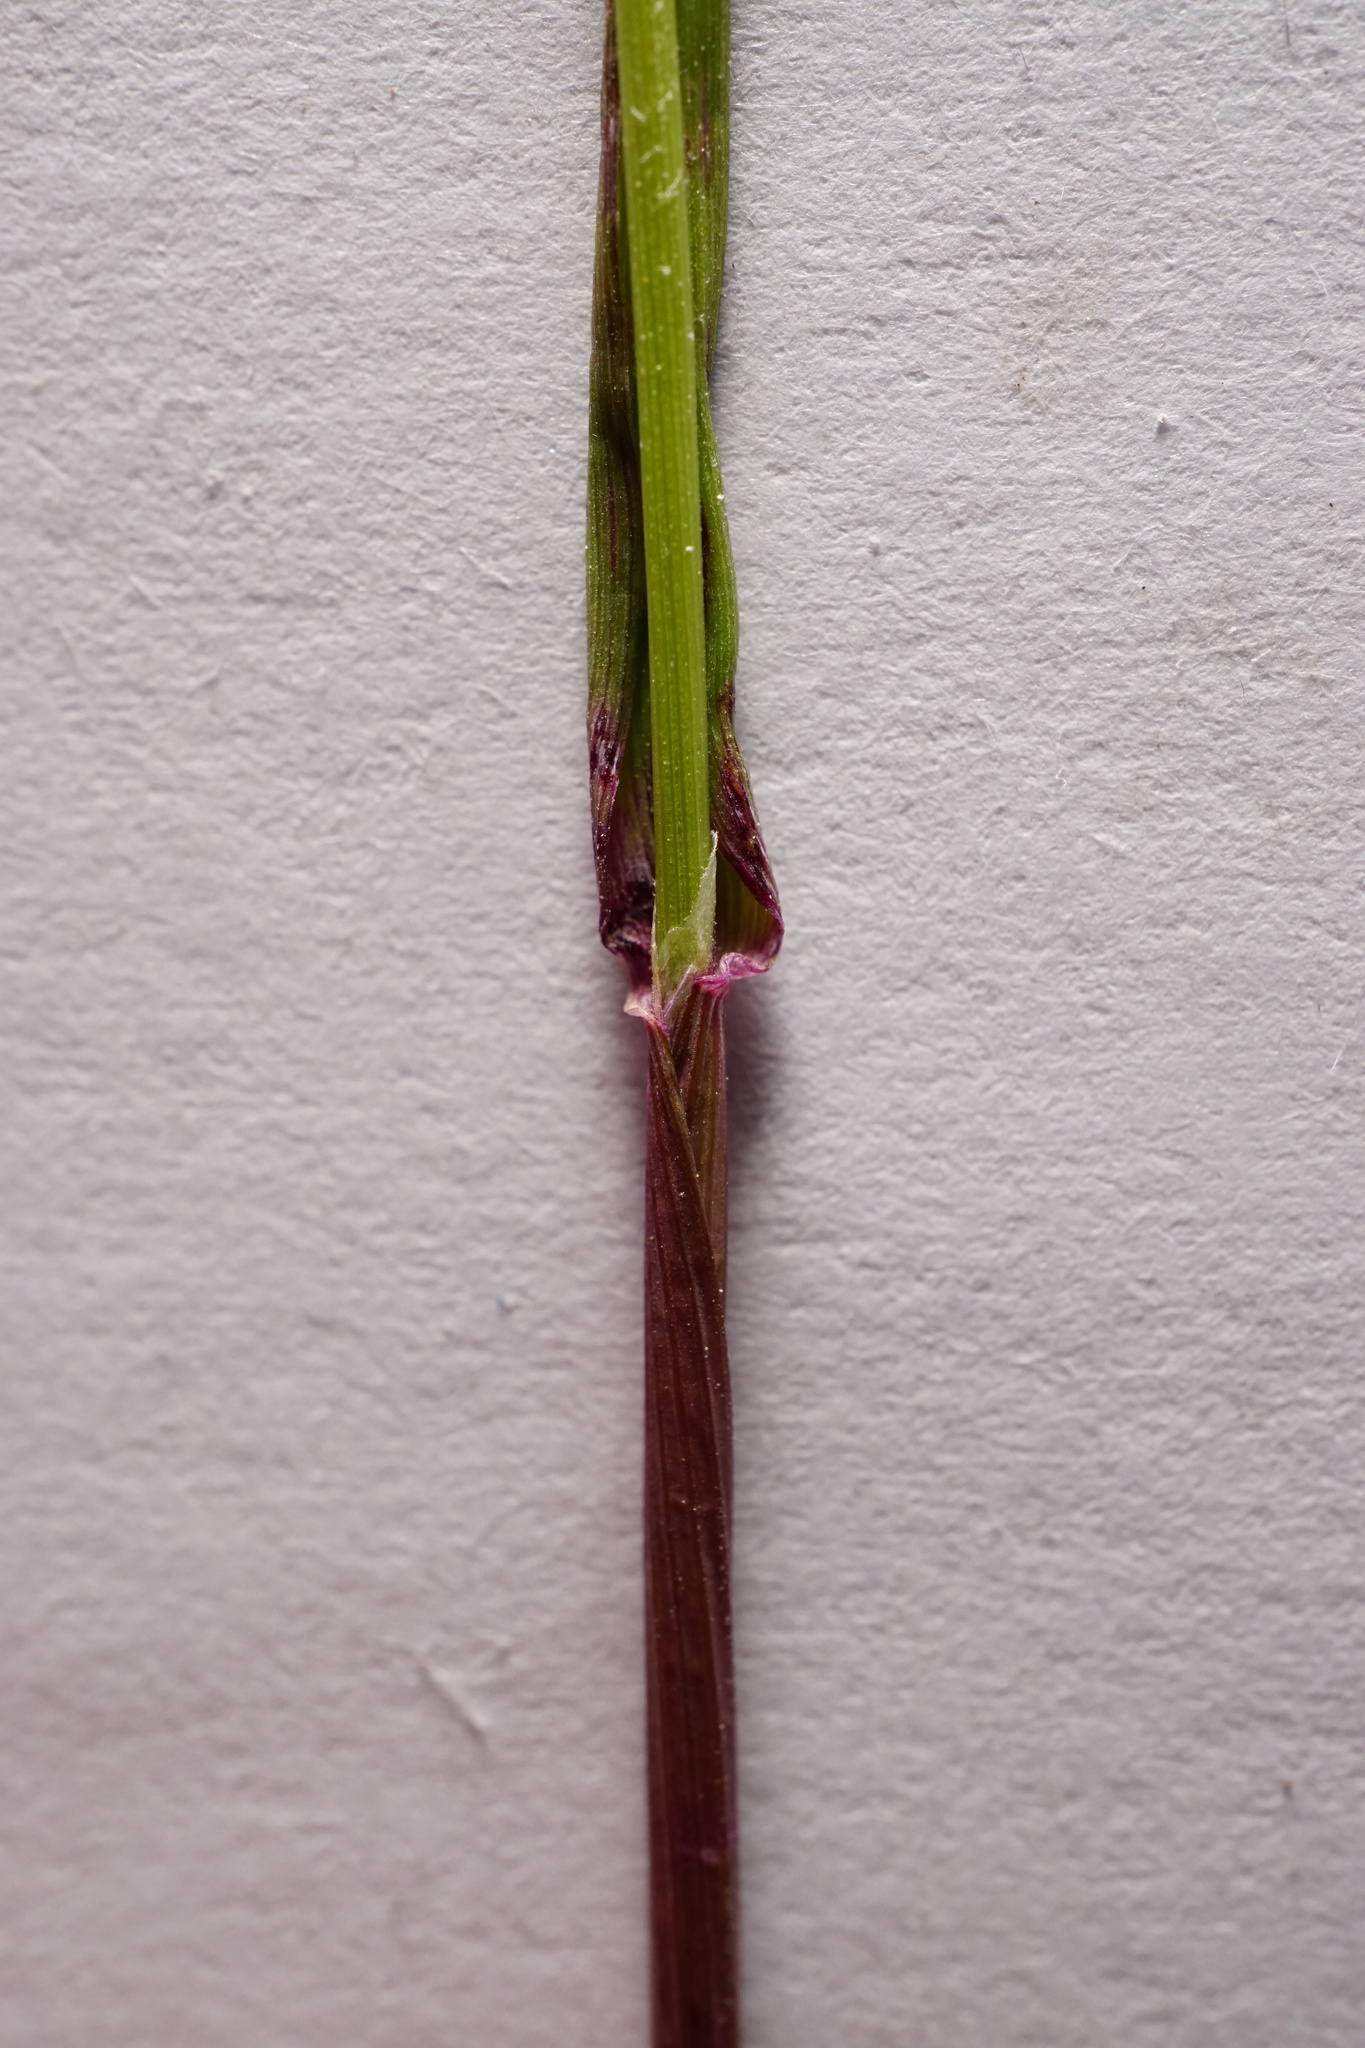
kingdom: Plantae
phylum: Tracheophyta
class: Liliopsida
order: Poales
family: Poaceae
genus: Alopecurus
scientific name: Alopecurus myosuroides
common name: Black-grass
